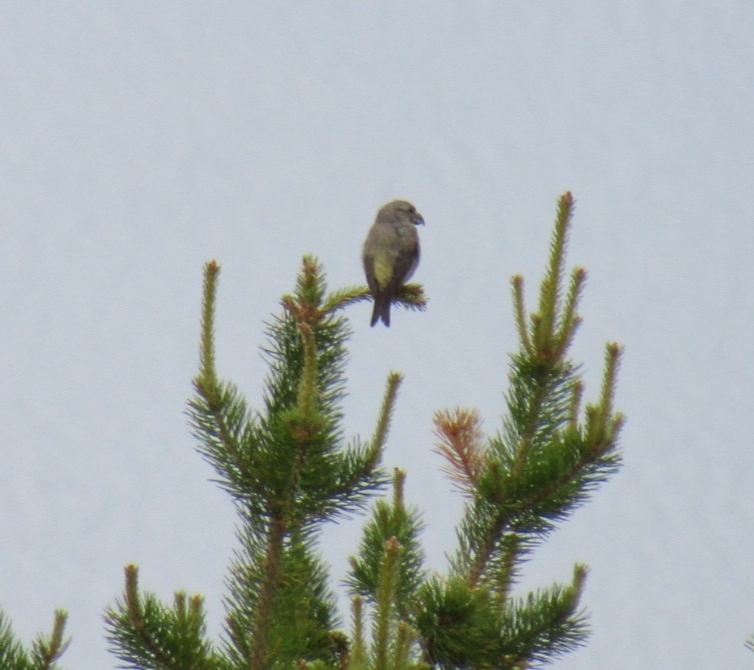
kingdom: Animalia
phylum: Chordata
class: Aves
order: Passeriformes
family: Fringillidae
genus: Loxia
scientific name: Loxia pytyopsittacus
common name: Parrot crossbill
